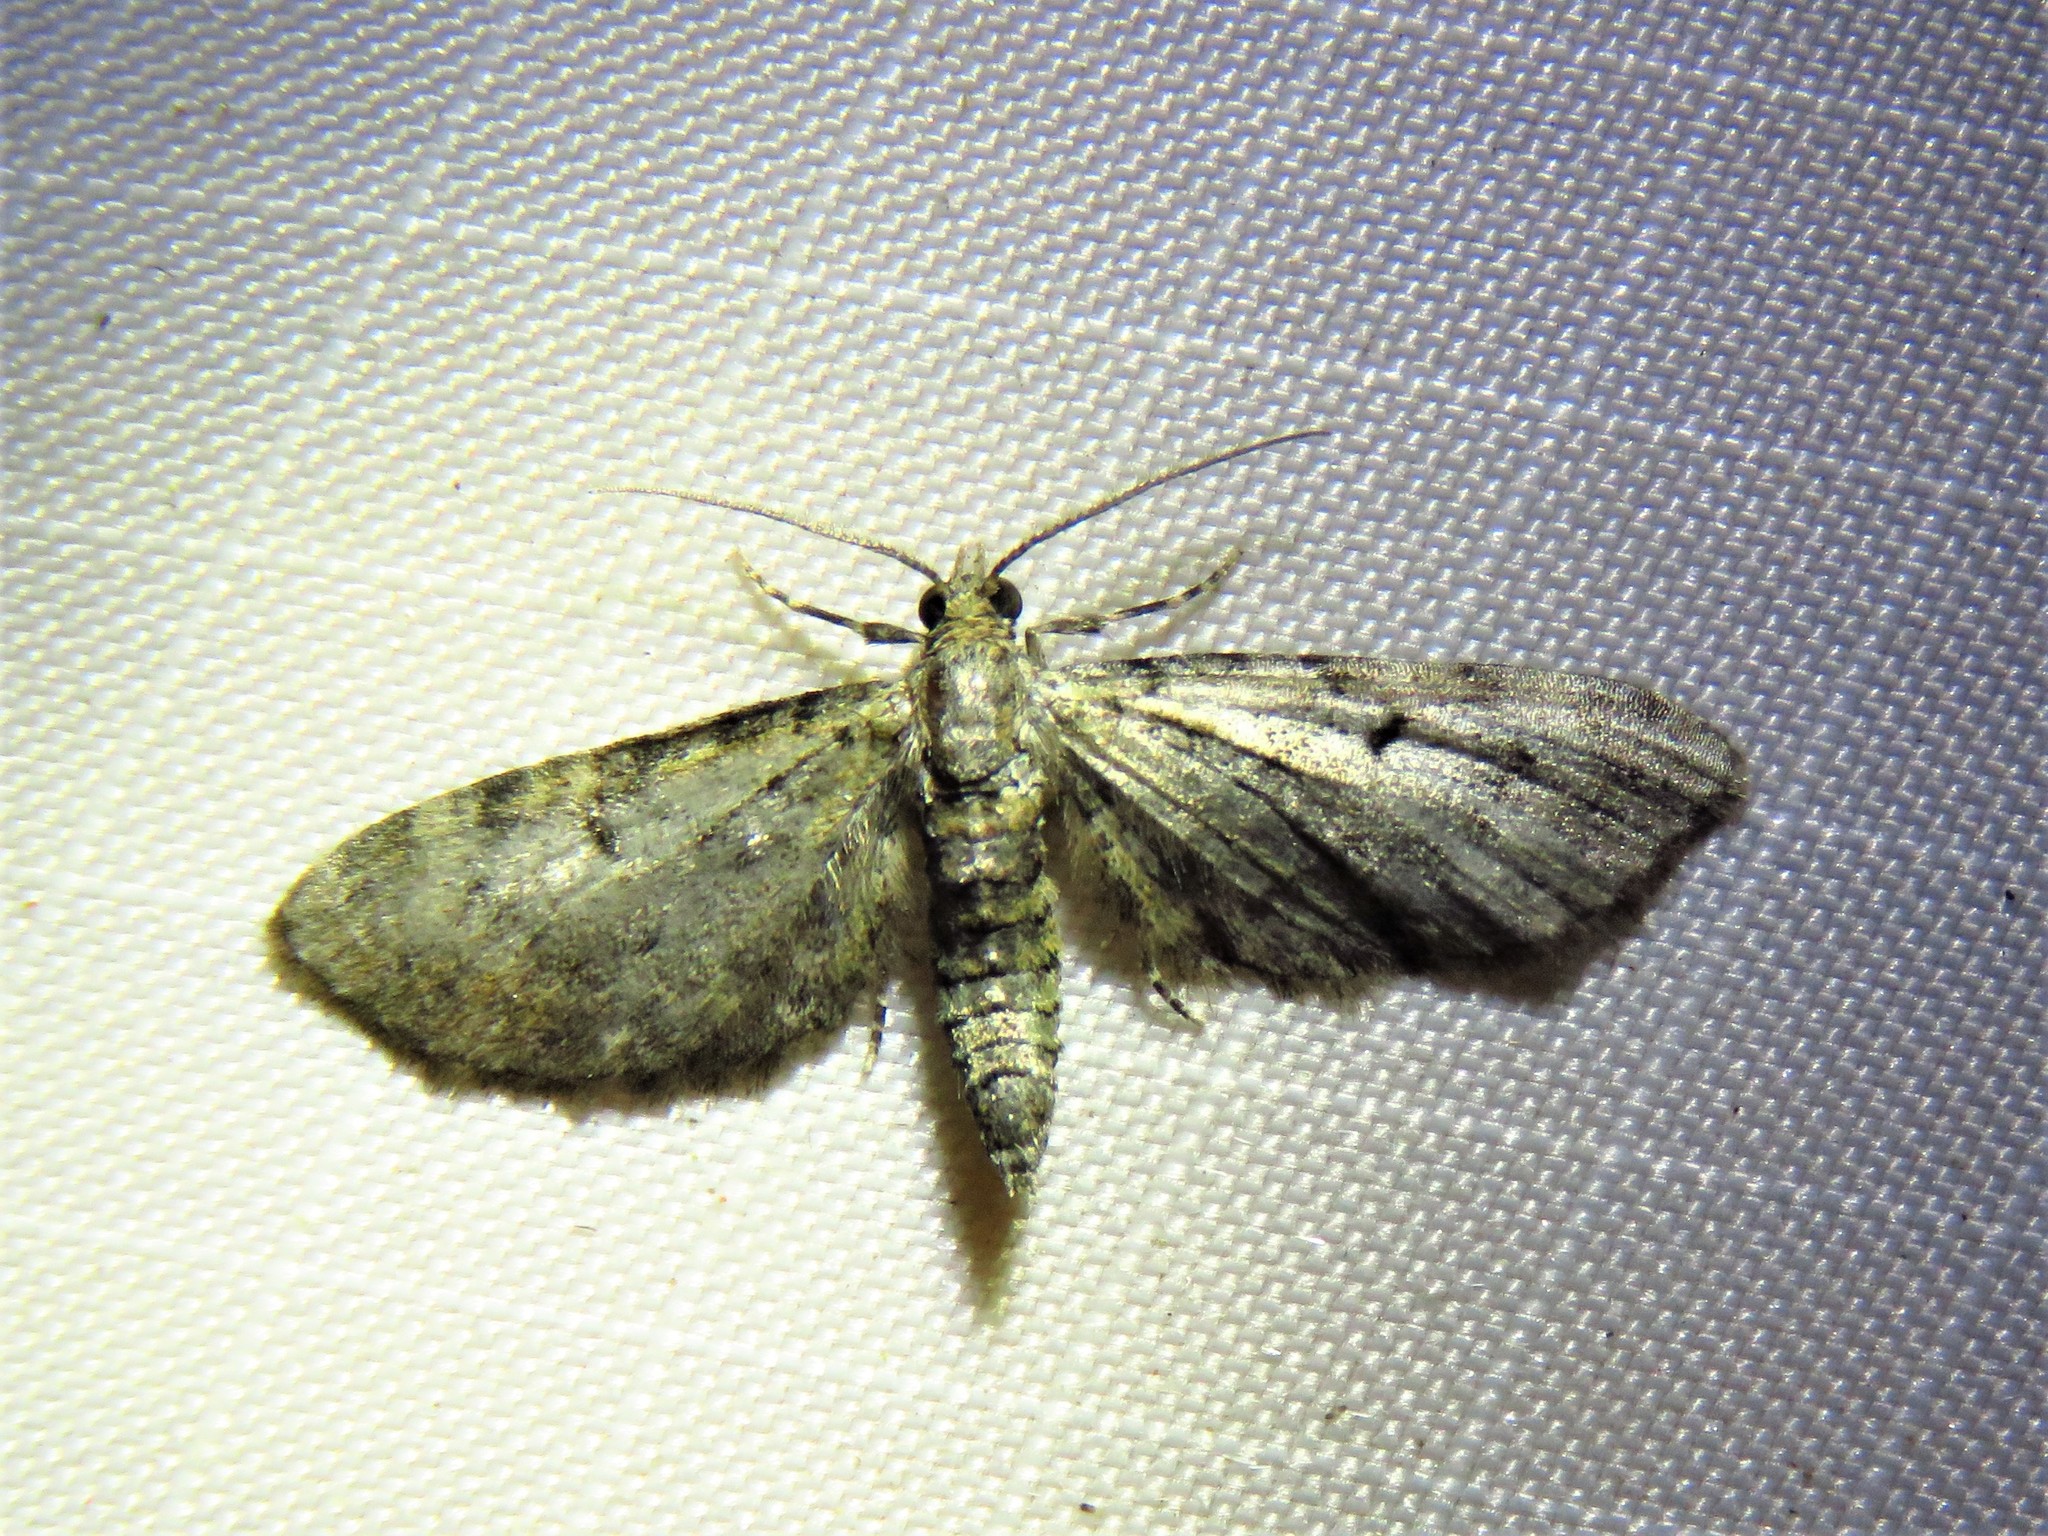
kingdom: Animalia
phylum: Arthropoda
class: Insecta
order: Lepidoptera
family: Geometridae
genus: Eupithecia
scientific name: Eupithecia miserulata
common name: Common eupithecia
